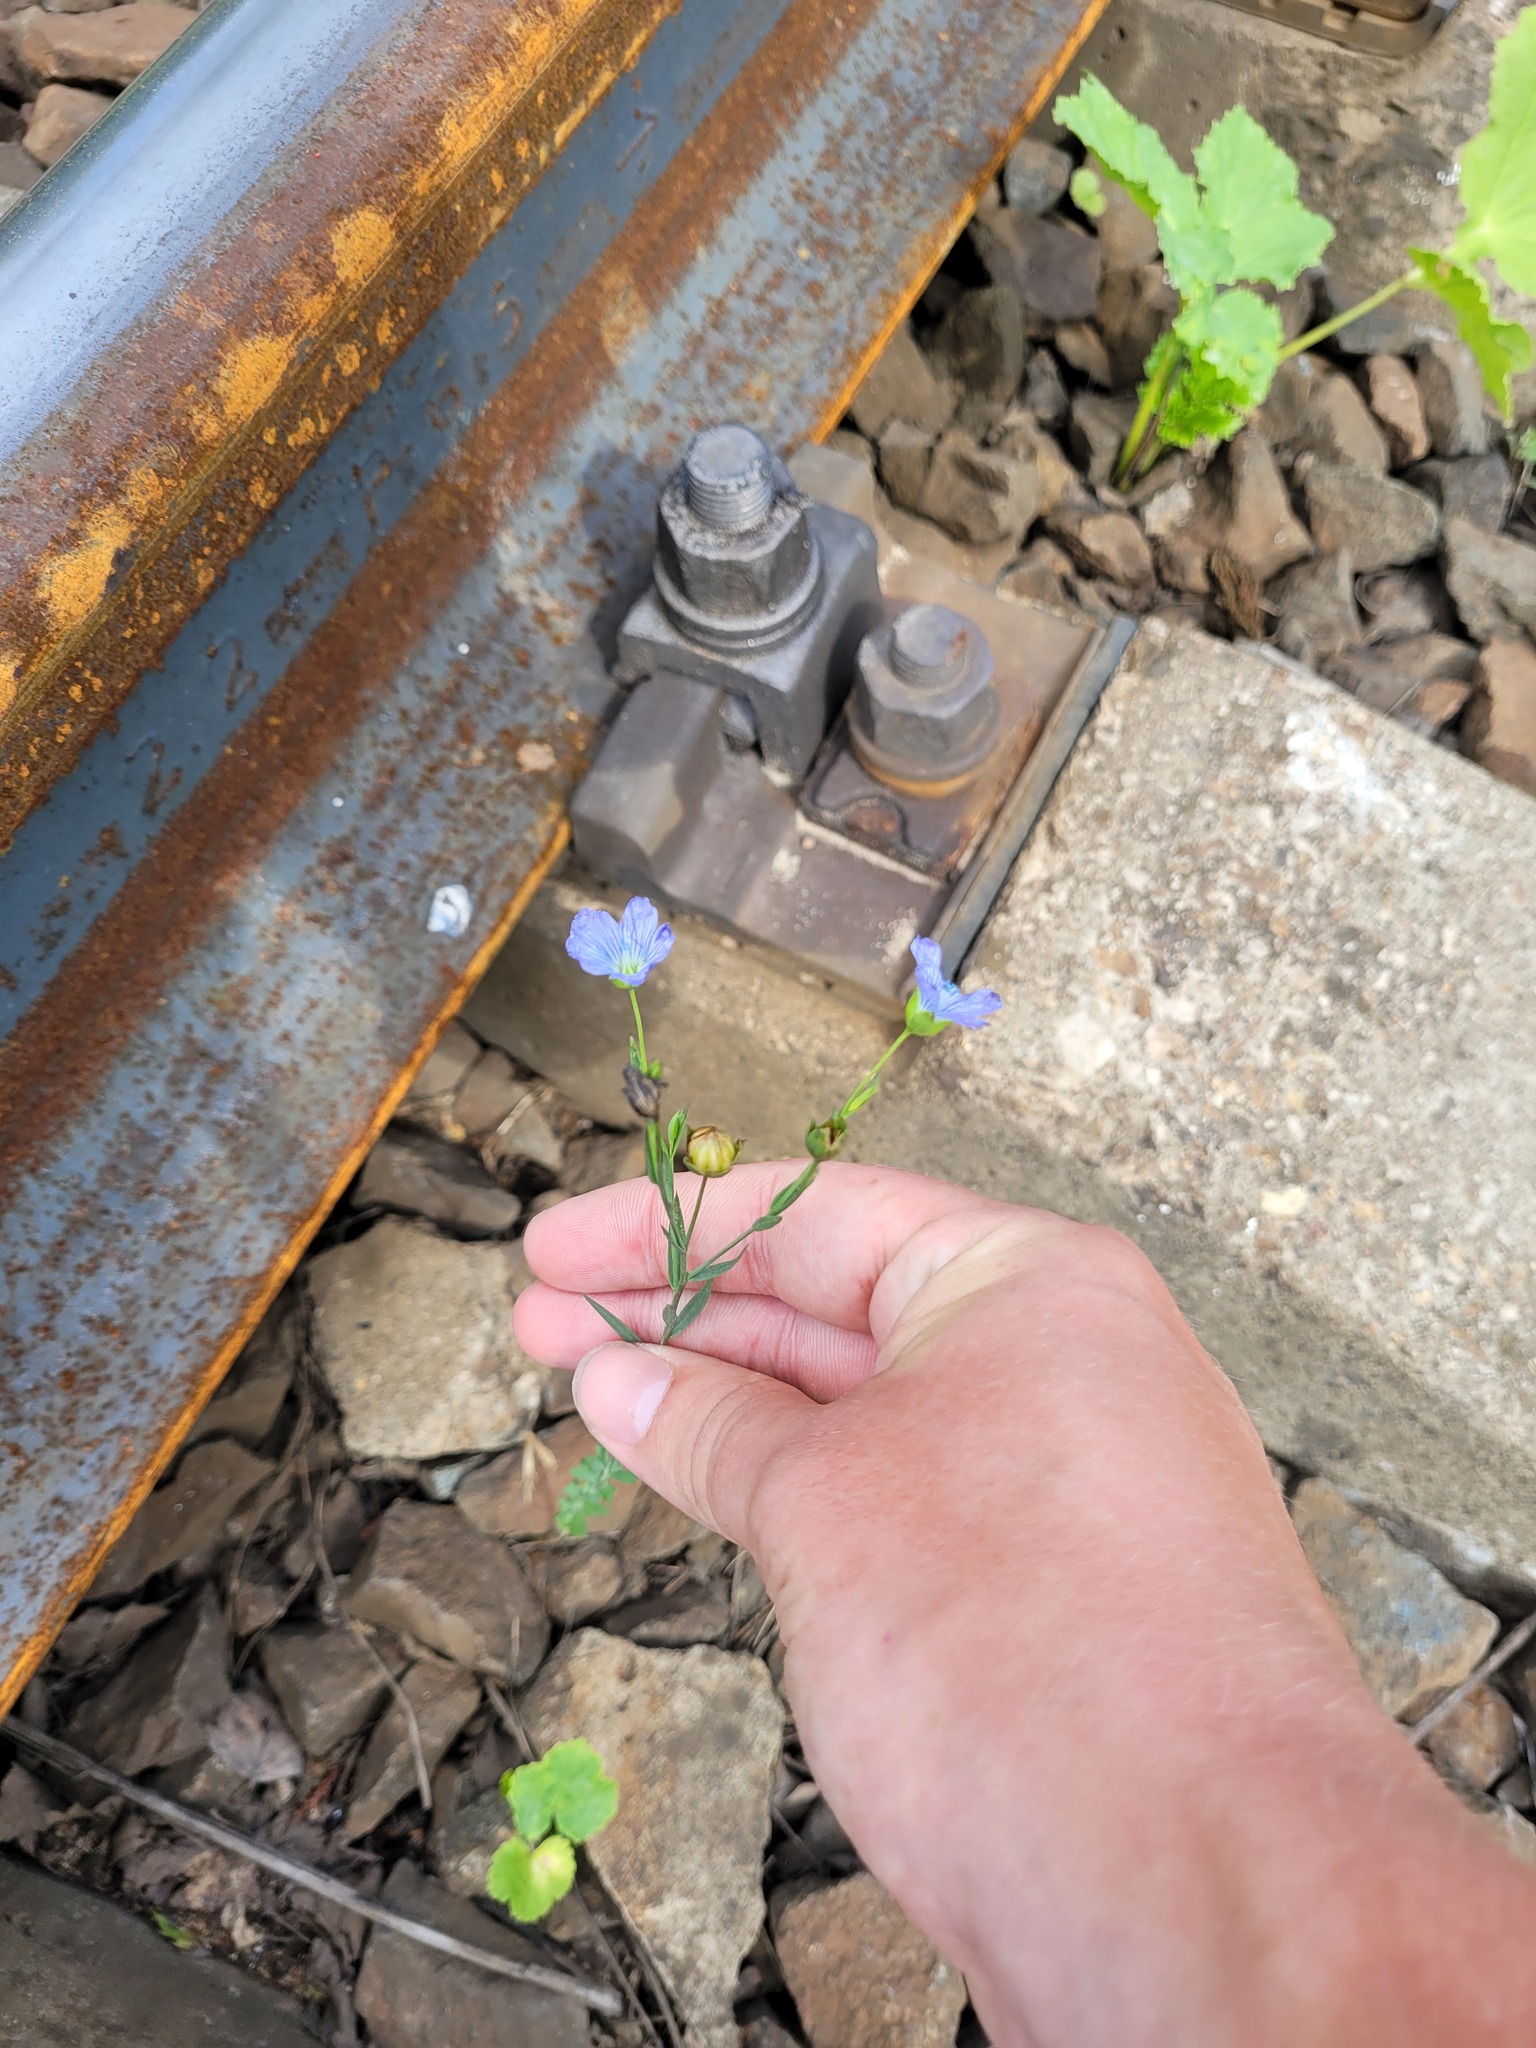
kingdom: Plantae
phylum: Tracheophyta
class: Magnoliopsida
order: Malpighiales
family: Linaceae
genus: Linum
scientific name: Linum usitatissimum
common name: Flax
